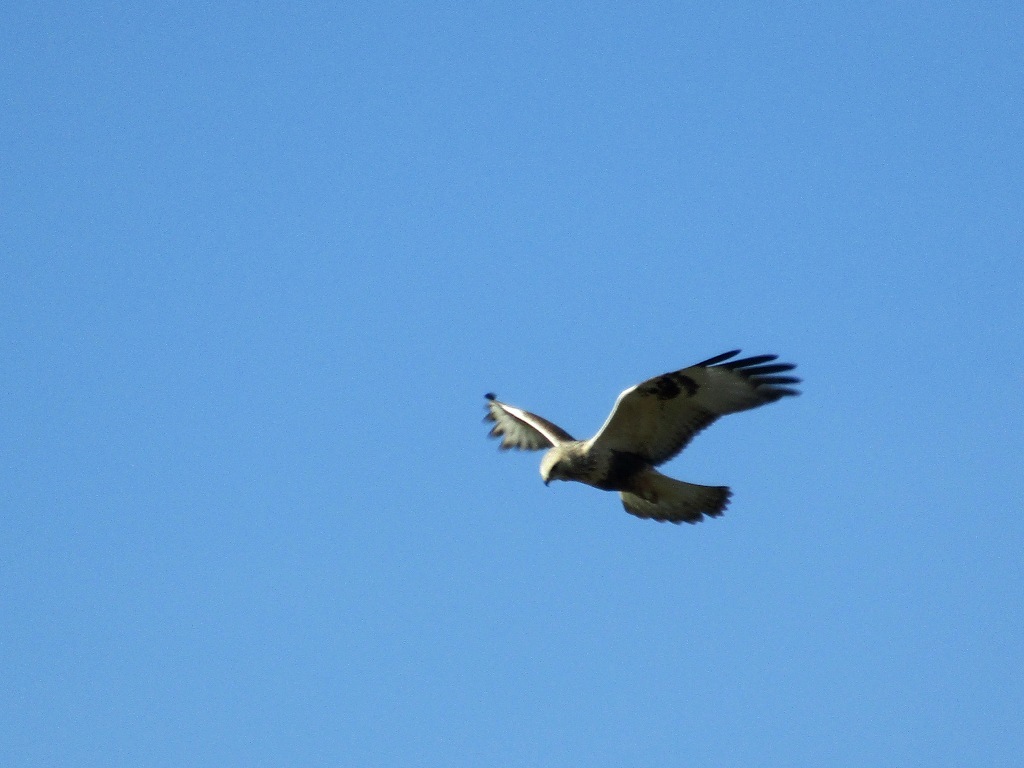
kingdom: Animalia
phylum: Chordata
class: Aves
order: Accipitriformes
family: Accipitridae
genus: Buteo
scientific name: Buteo lagopus
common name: Rough-legged buzzard
